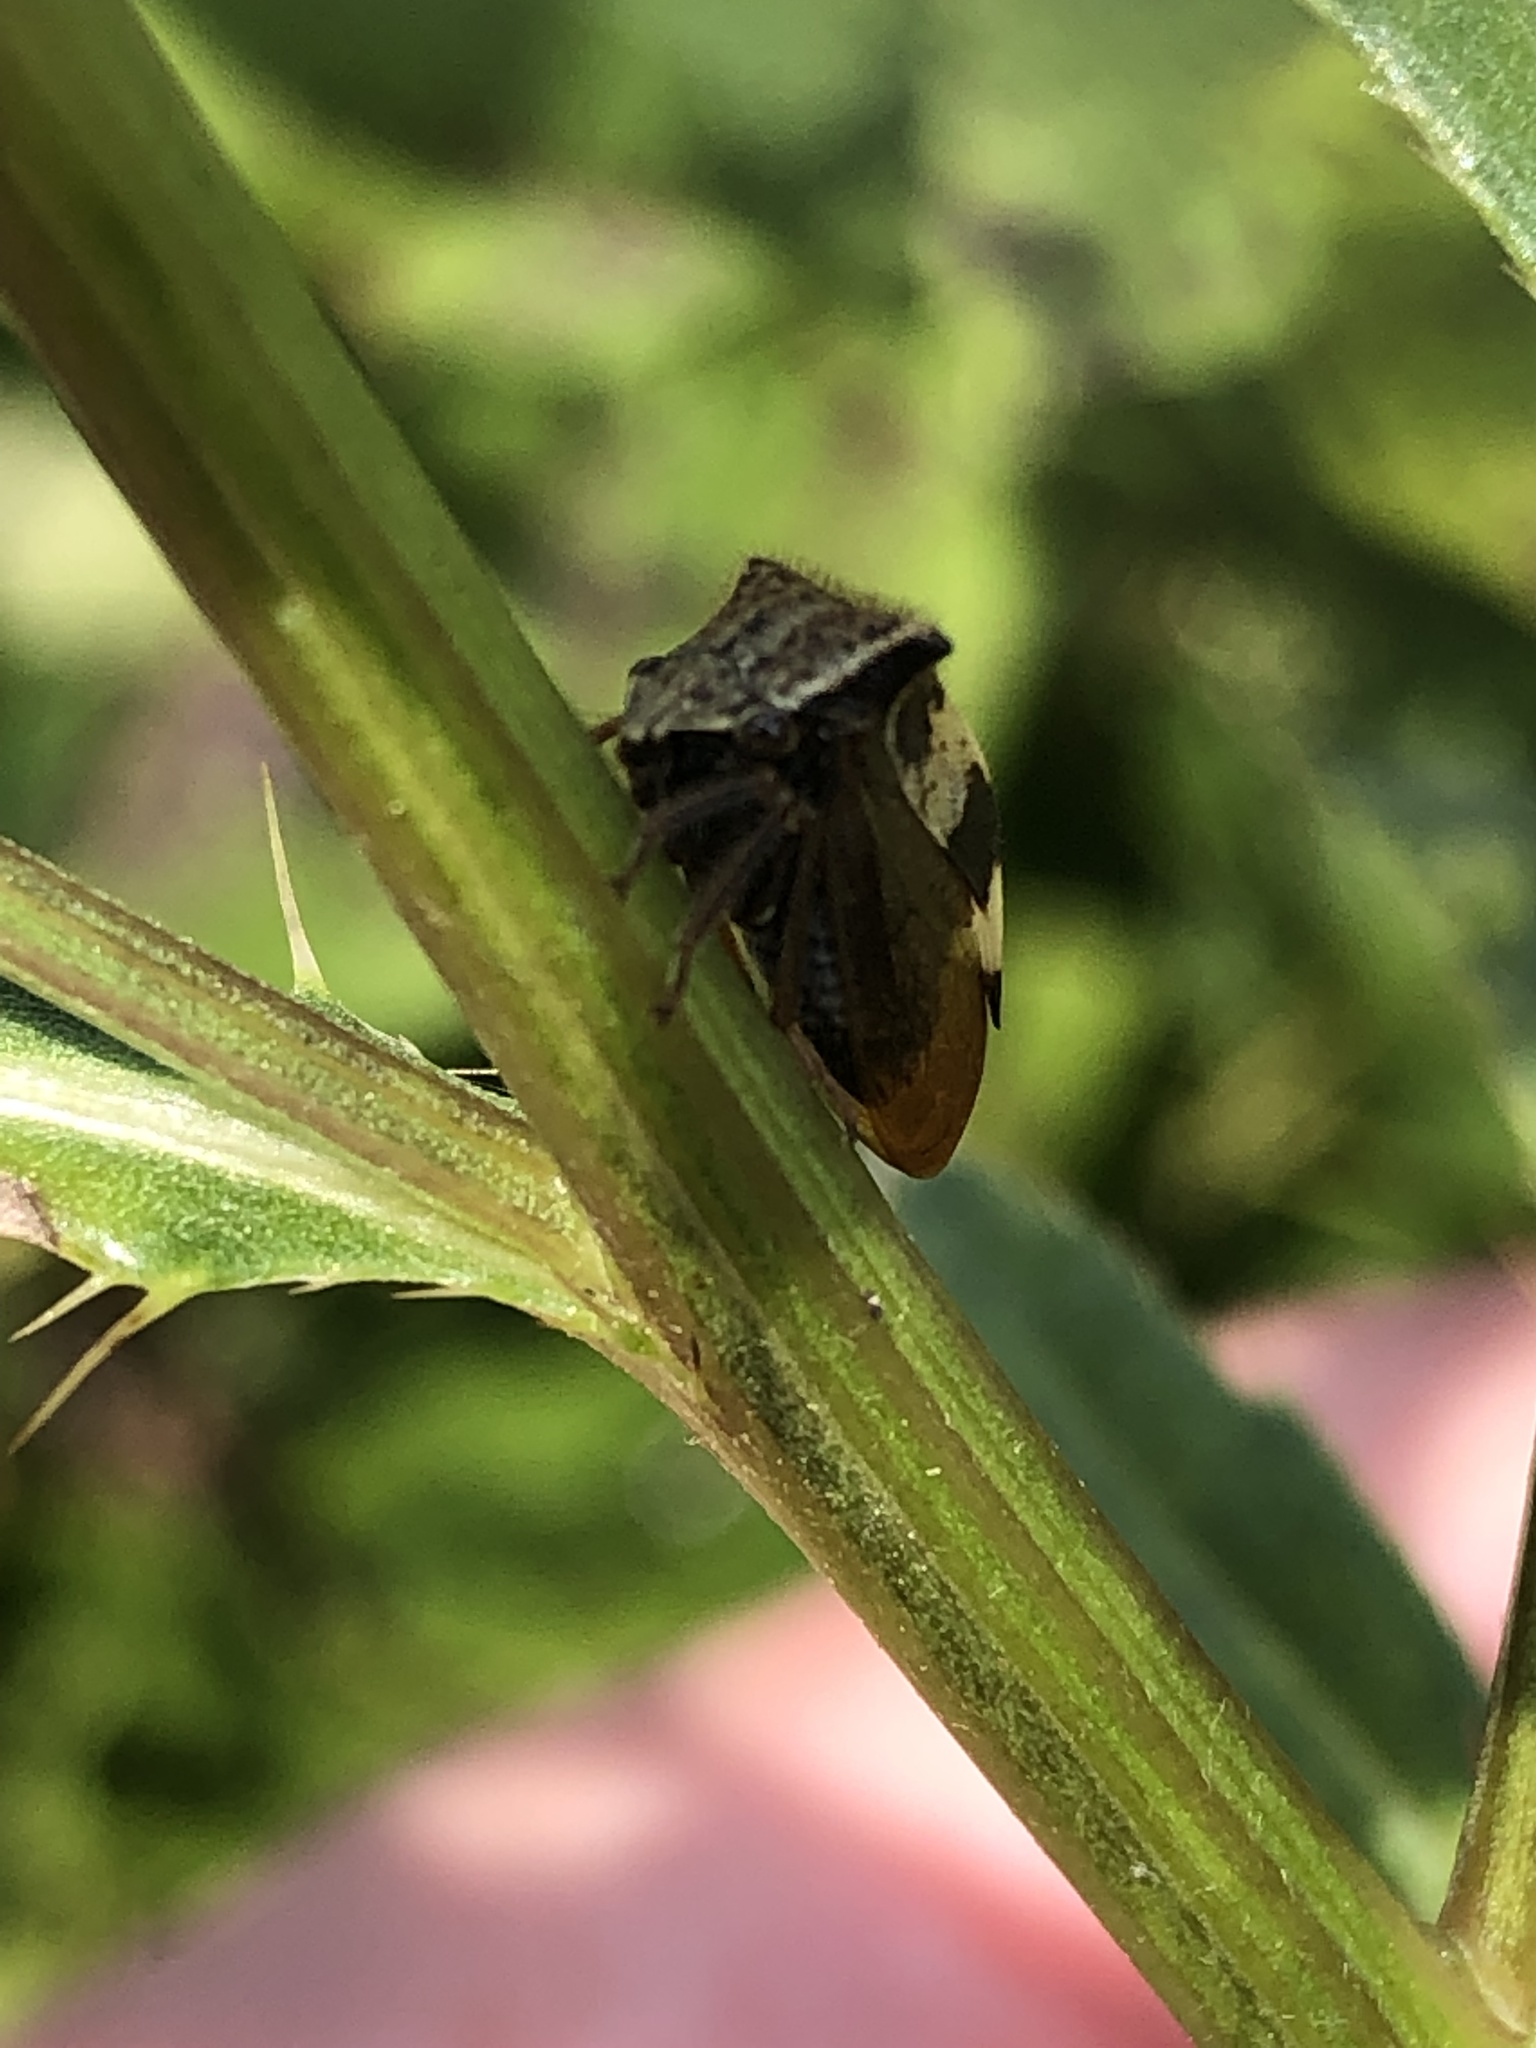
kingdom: Animalia
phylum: Arthropoda
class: Insecta
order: Hemiptera
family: Membracidae
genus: Stictocephala
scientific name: Stictocephala diceros
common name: Two-horned treehopper
